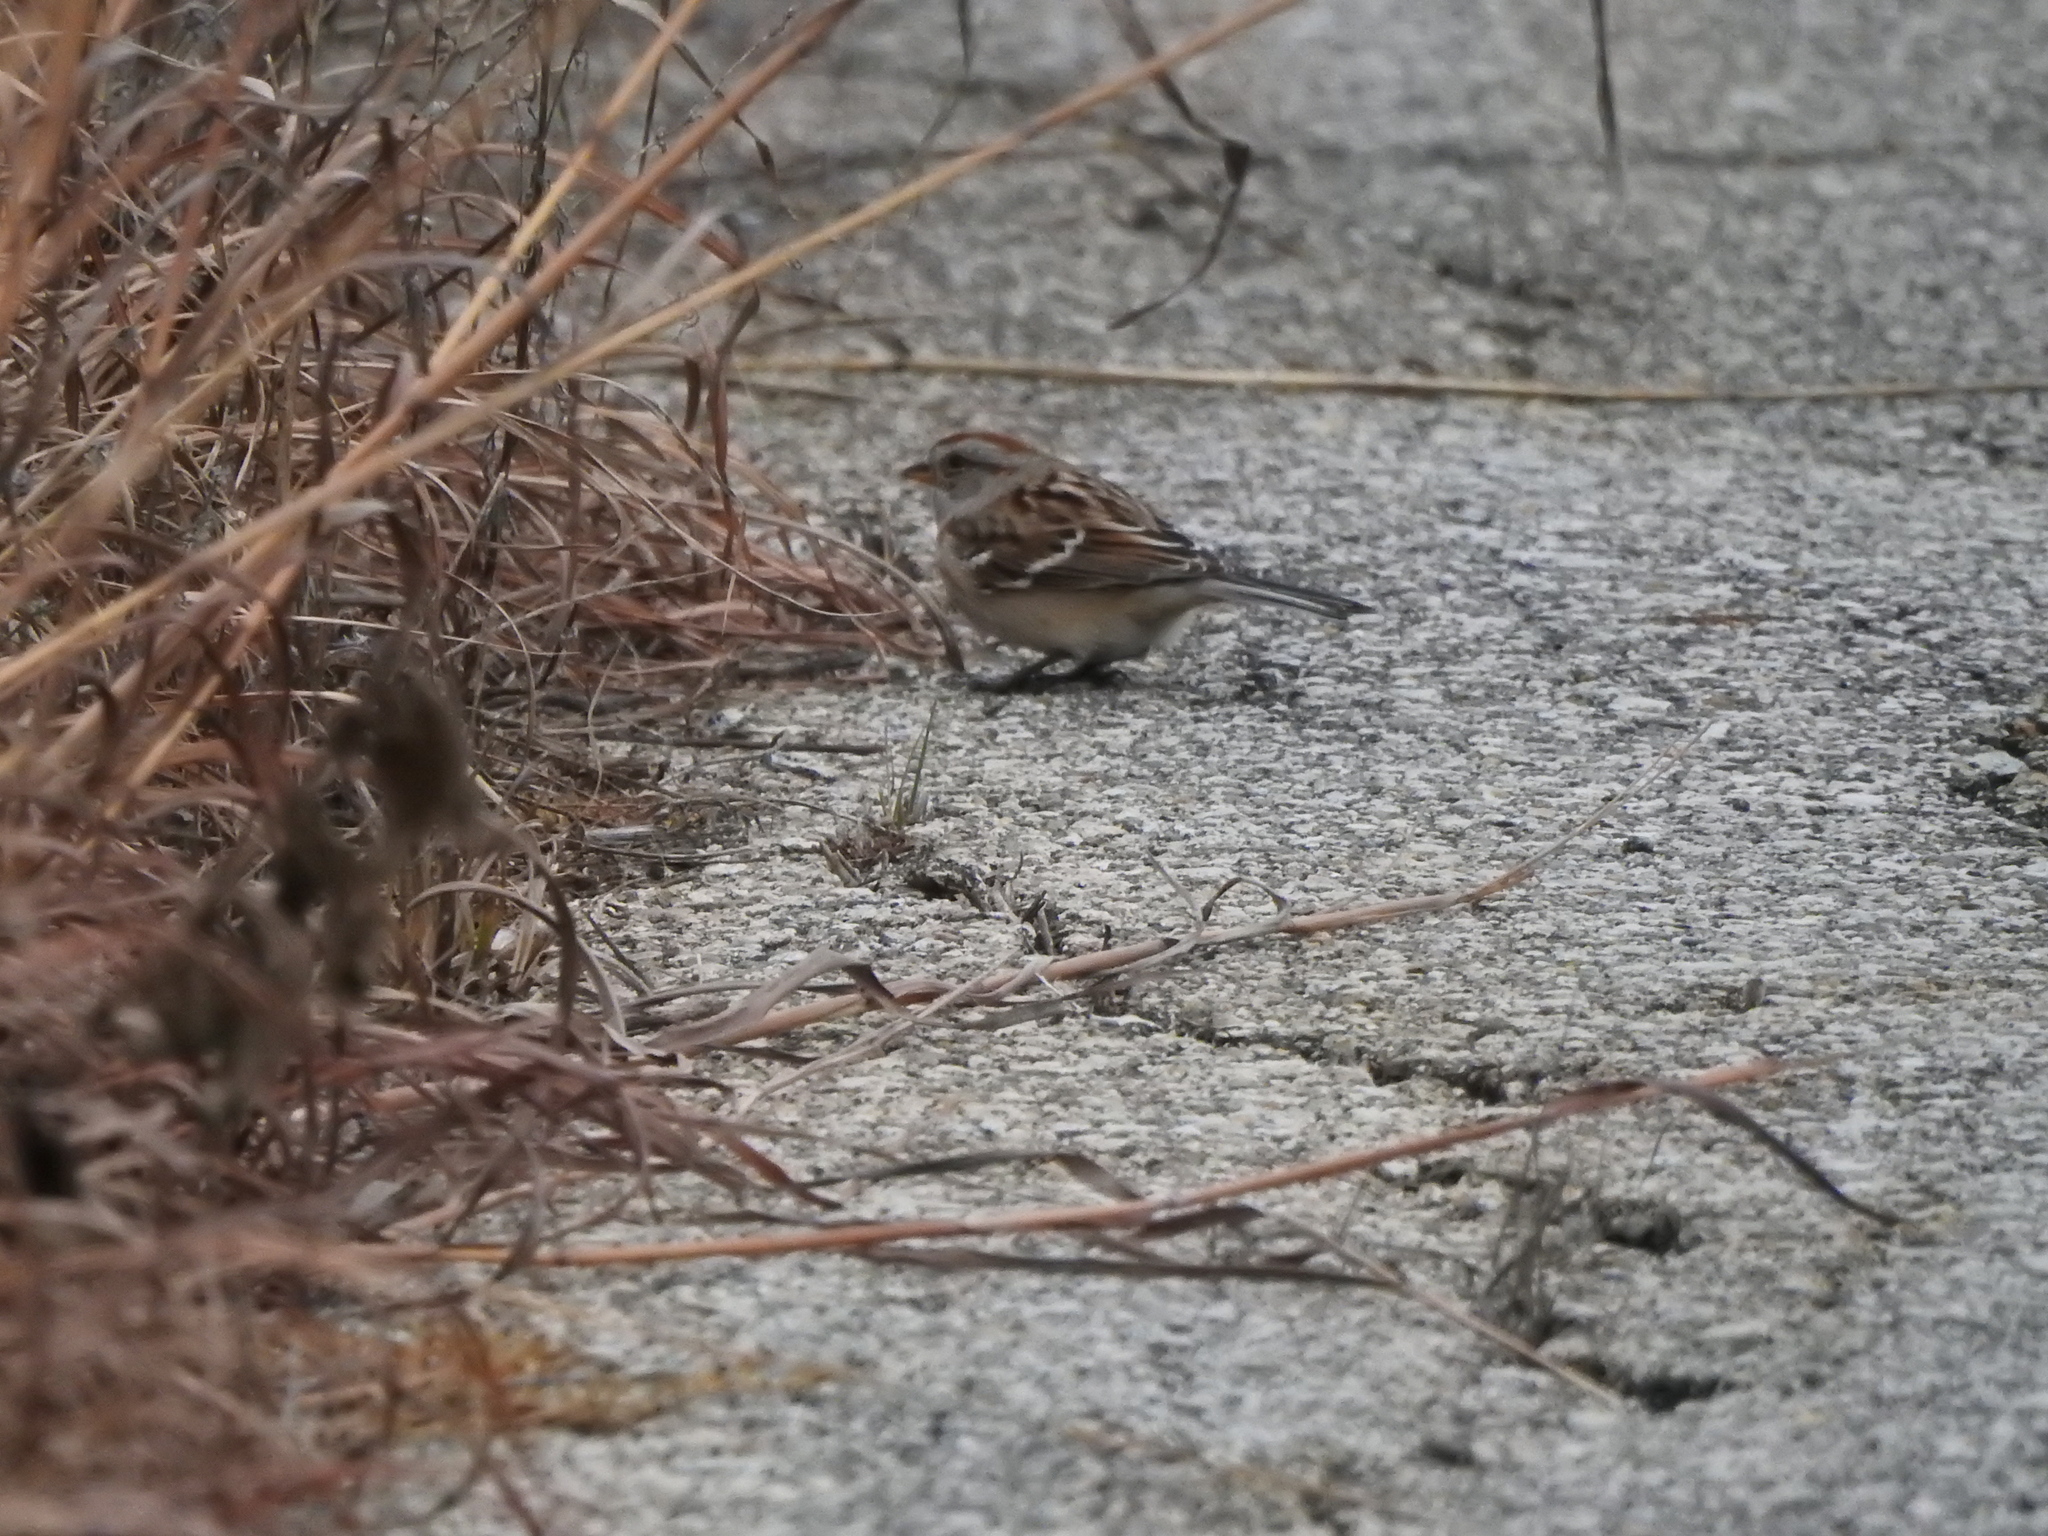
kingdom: Animalia
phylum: Chordata
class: Aves
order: Passeriformes
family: Passerellidae
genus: Spizelloides
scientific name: Spizelloides arborea
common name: American tree sparrow
